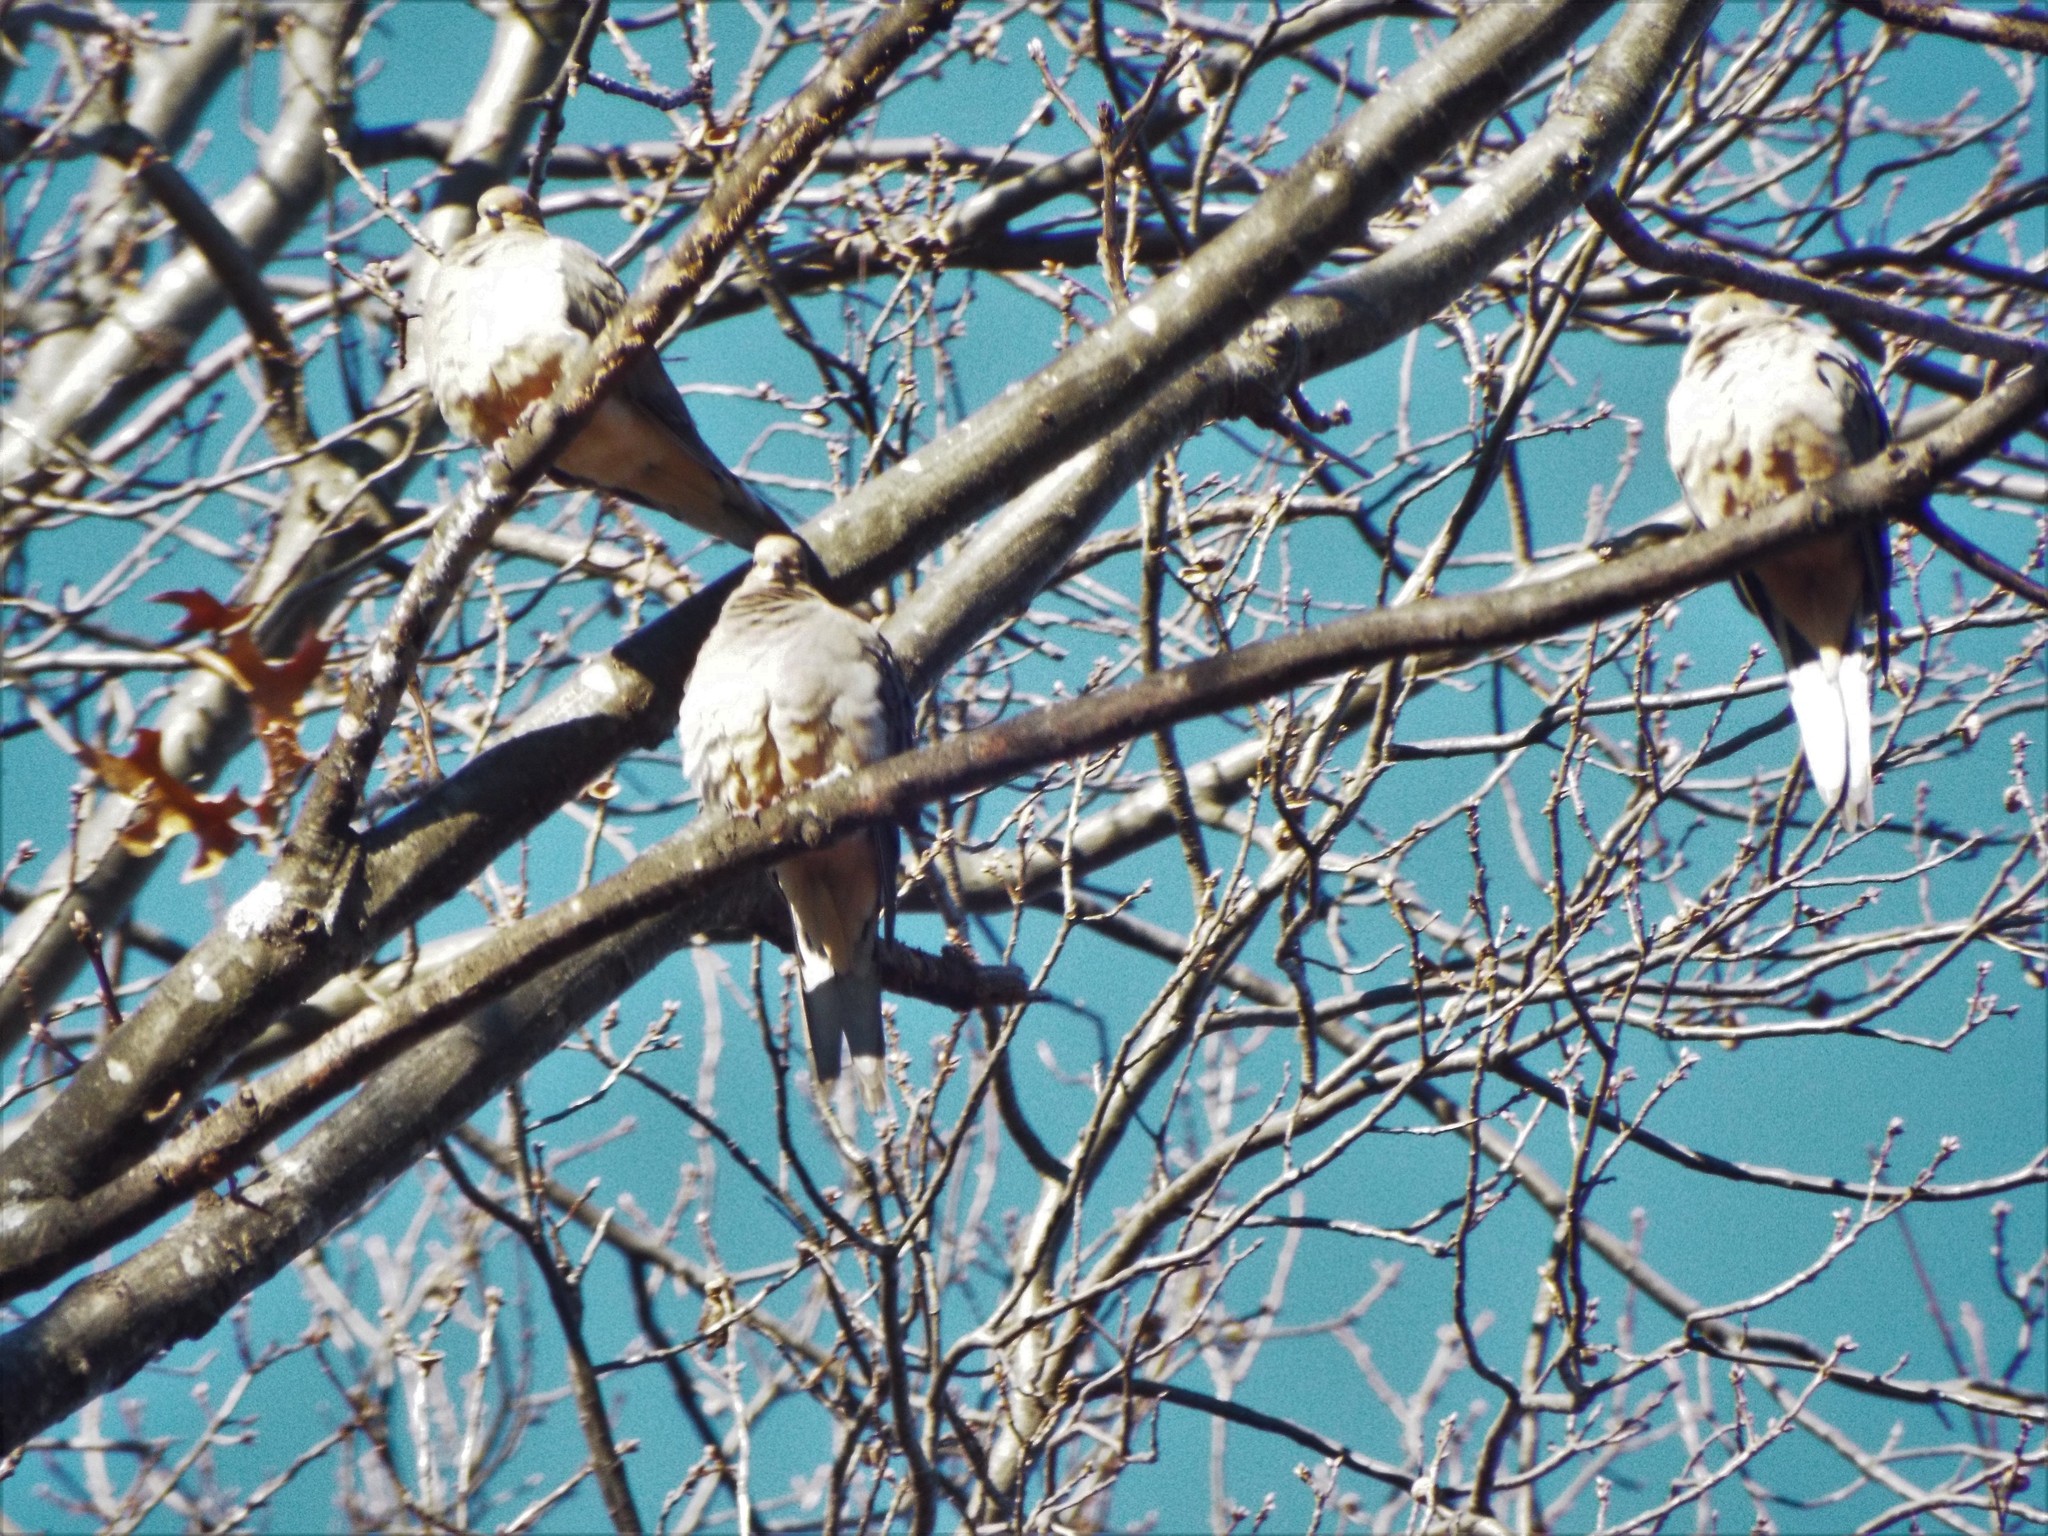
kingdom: Animalia
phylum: Chordata
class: Aves
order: Columbiformes
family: Columbidae
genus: Zenaida
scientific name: Zenaida macroura
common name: Mourning dove
